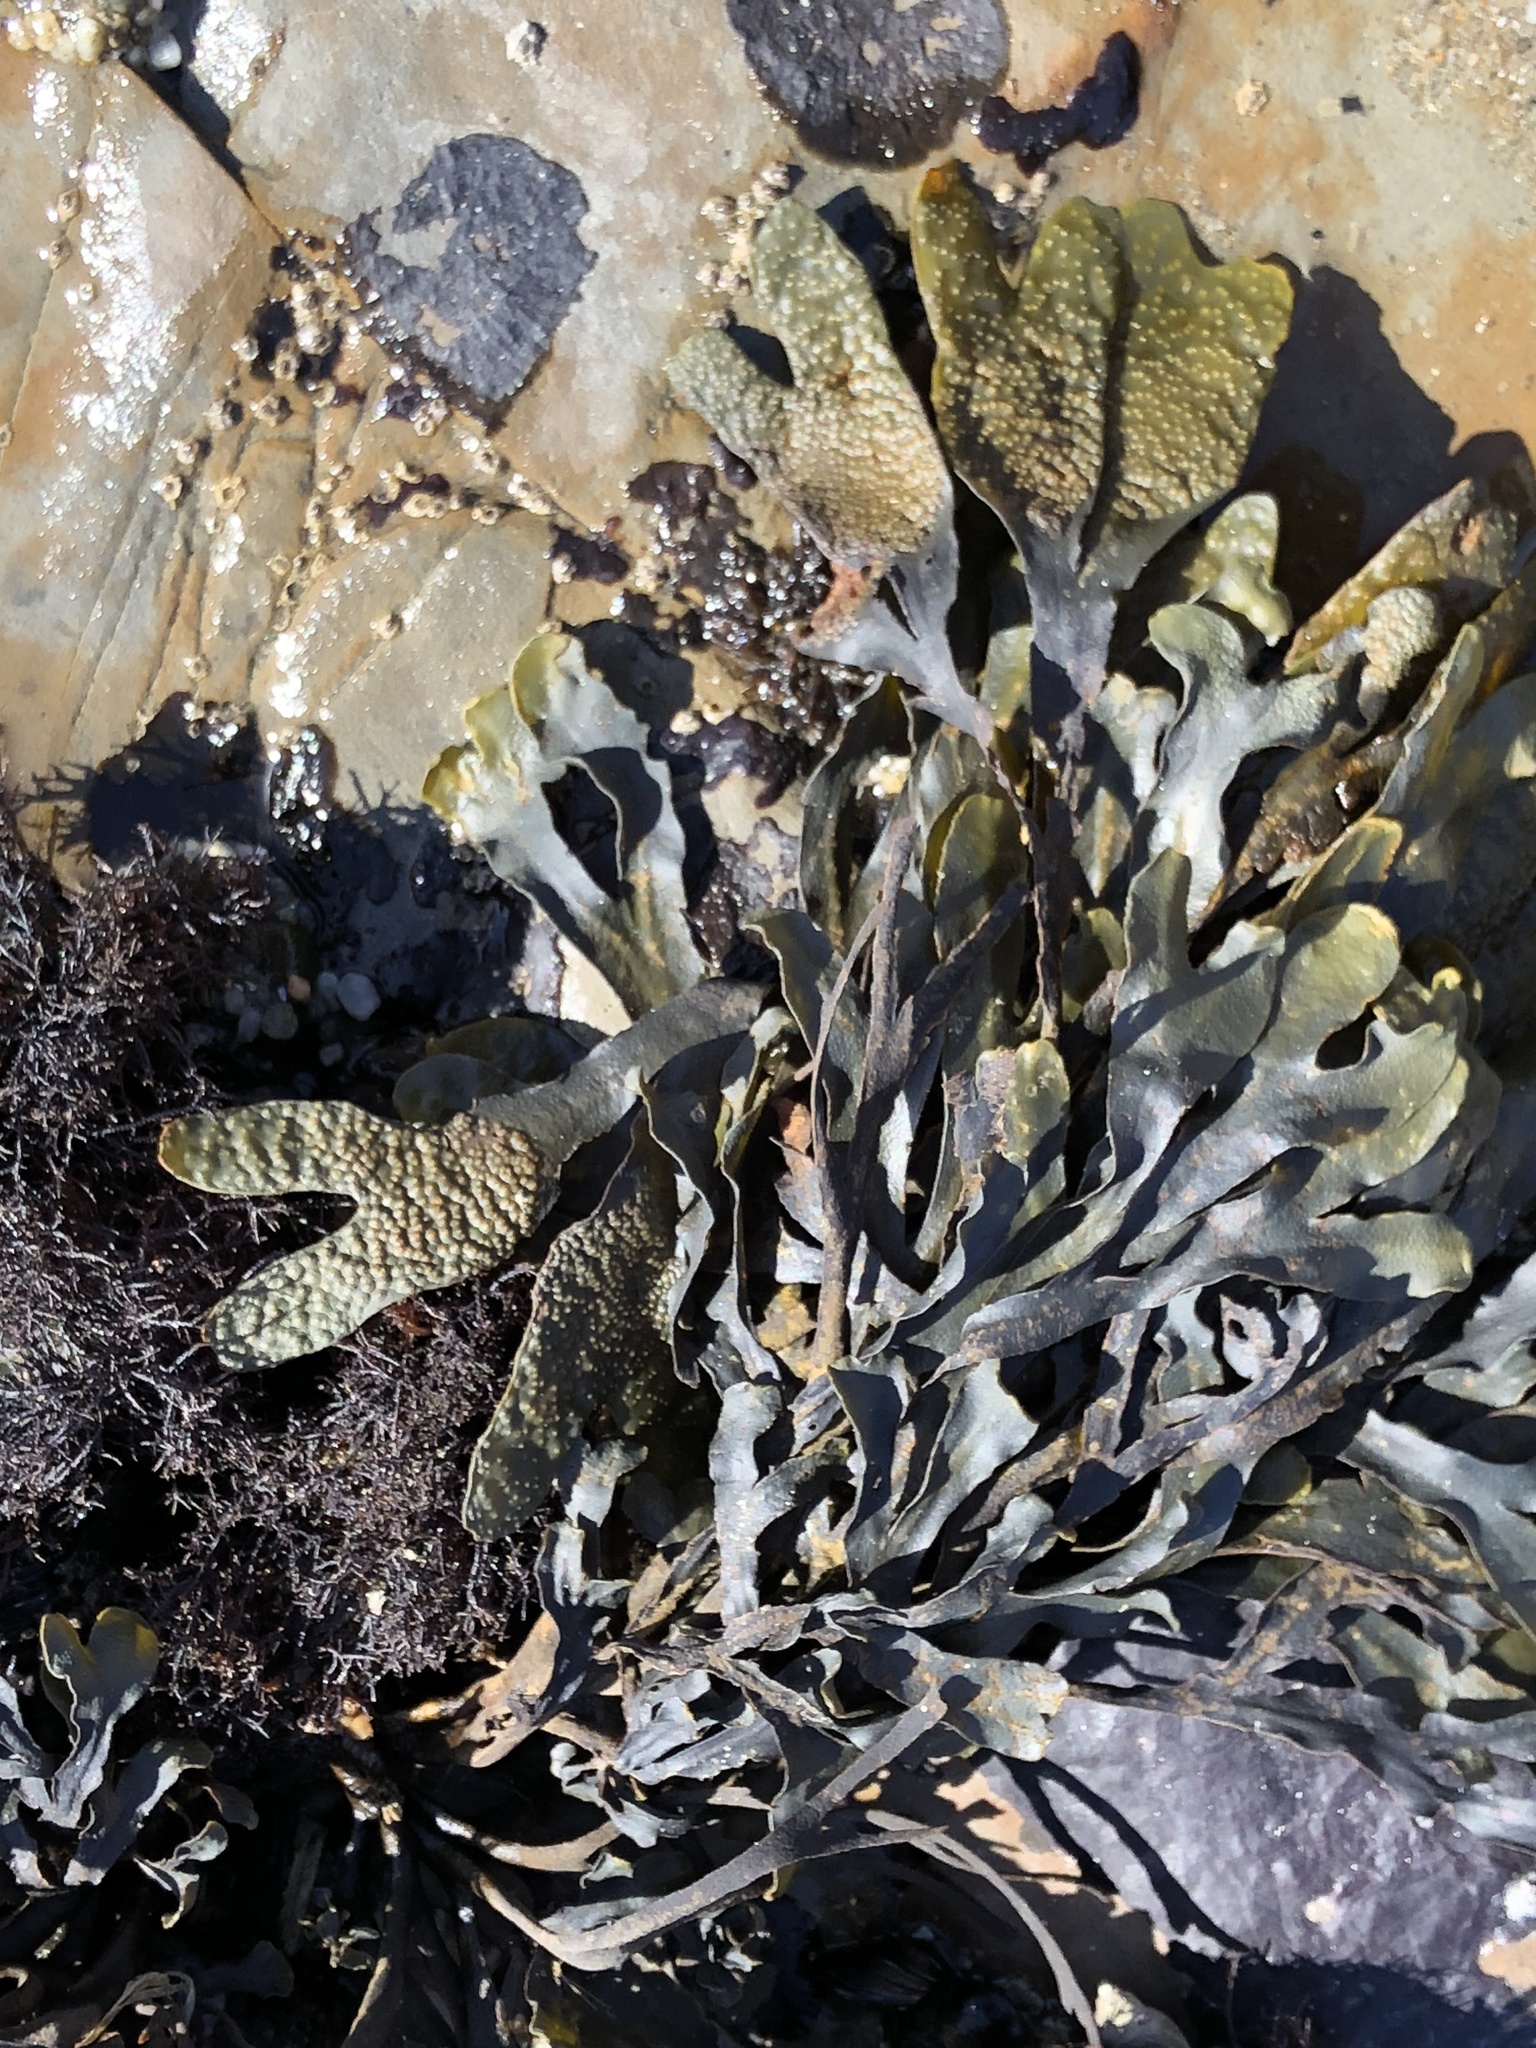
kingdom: Chromista
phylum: Ochrophyta
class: Phaeophyceae
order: Fucales
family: Fucaceae
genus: Fucus
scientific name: Fucus distichus
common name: Rockweed
